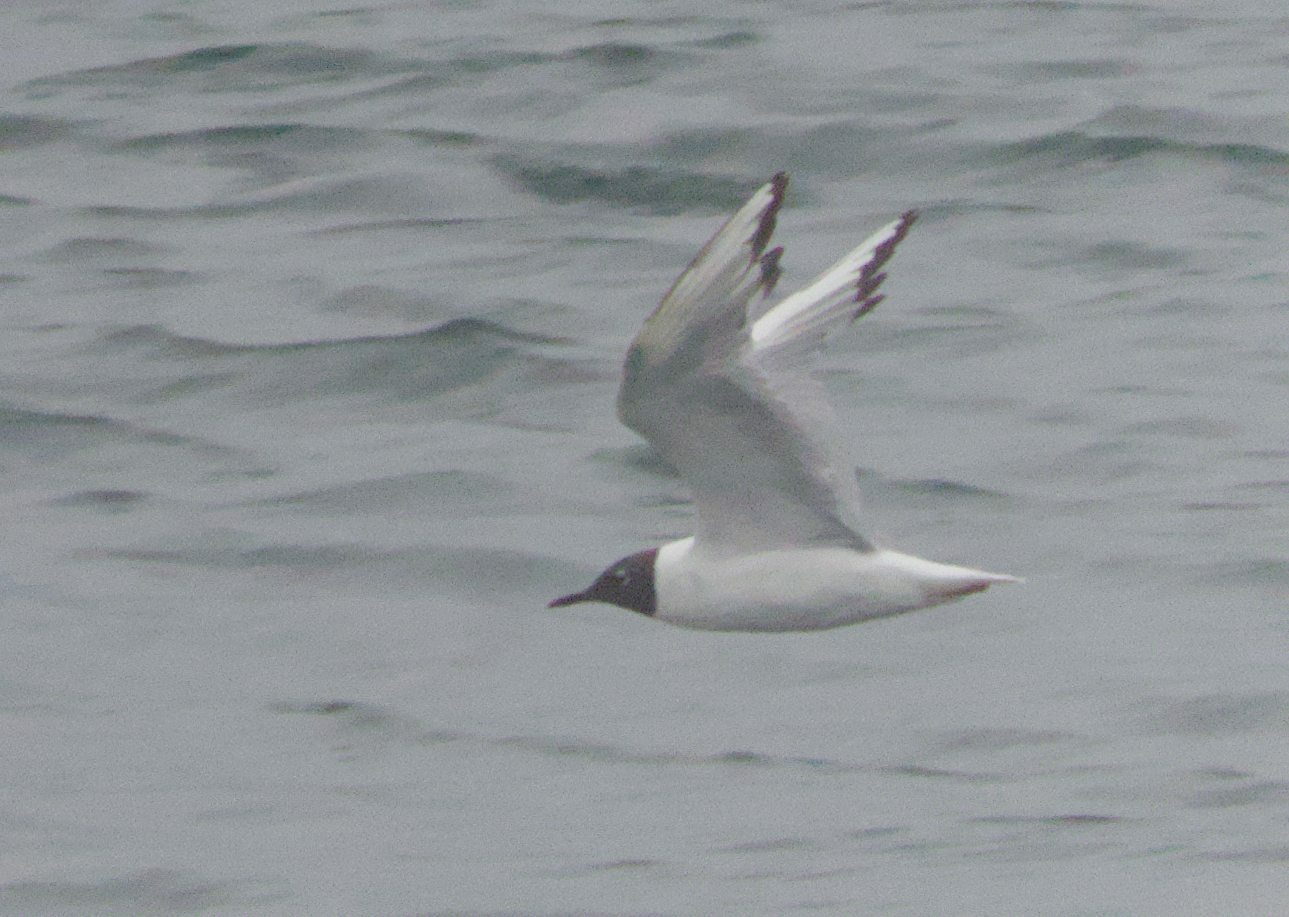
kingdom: Animalia
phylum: Chordata
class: Aves
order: Charadriiformes
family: Laridae
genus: Chroicocephalus
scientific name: Chroicocephalus philadelphia
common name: Bonaparte's gull
